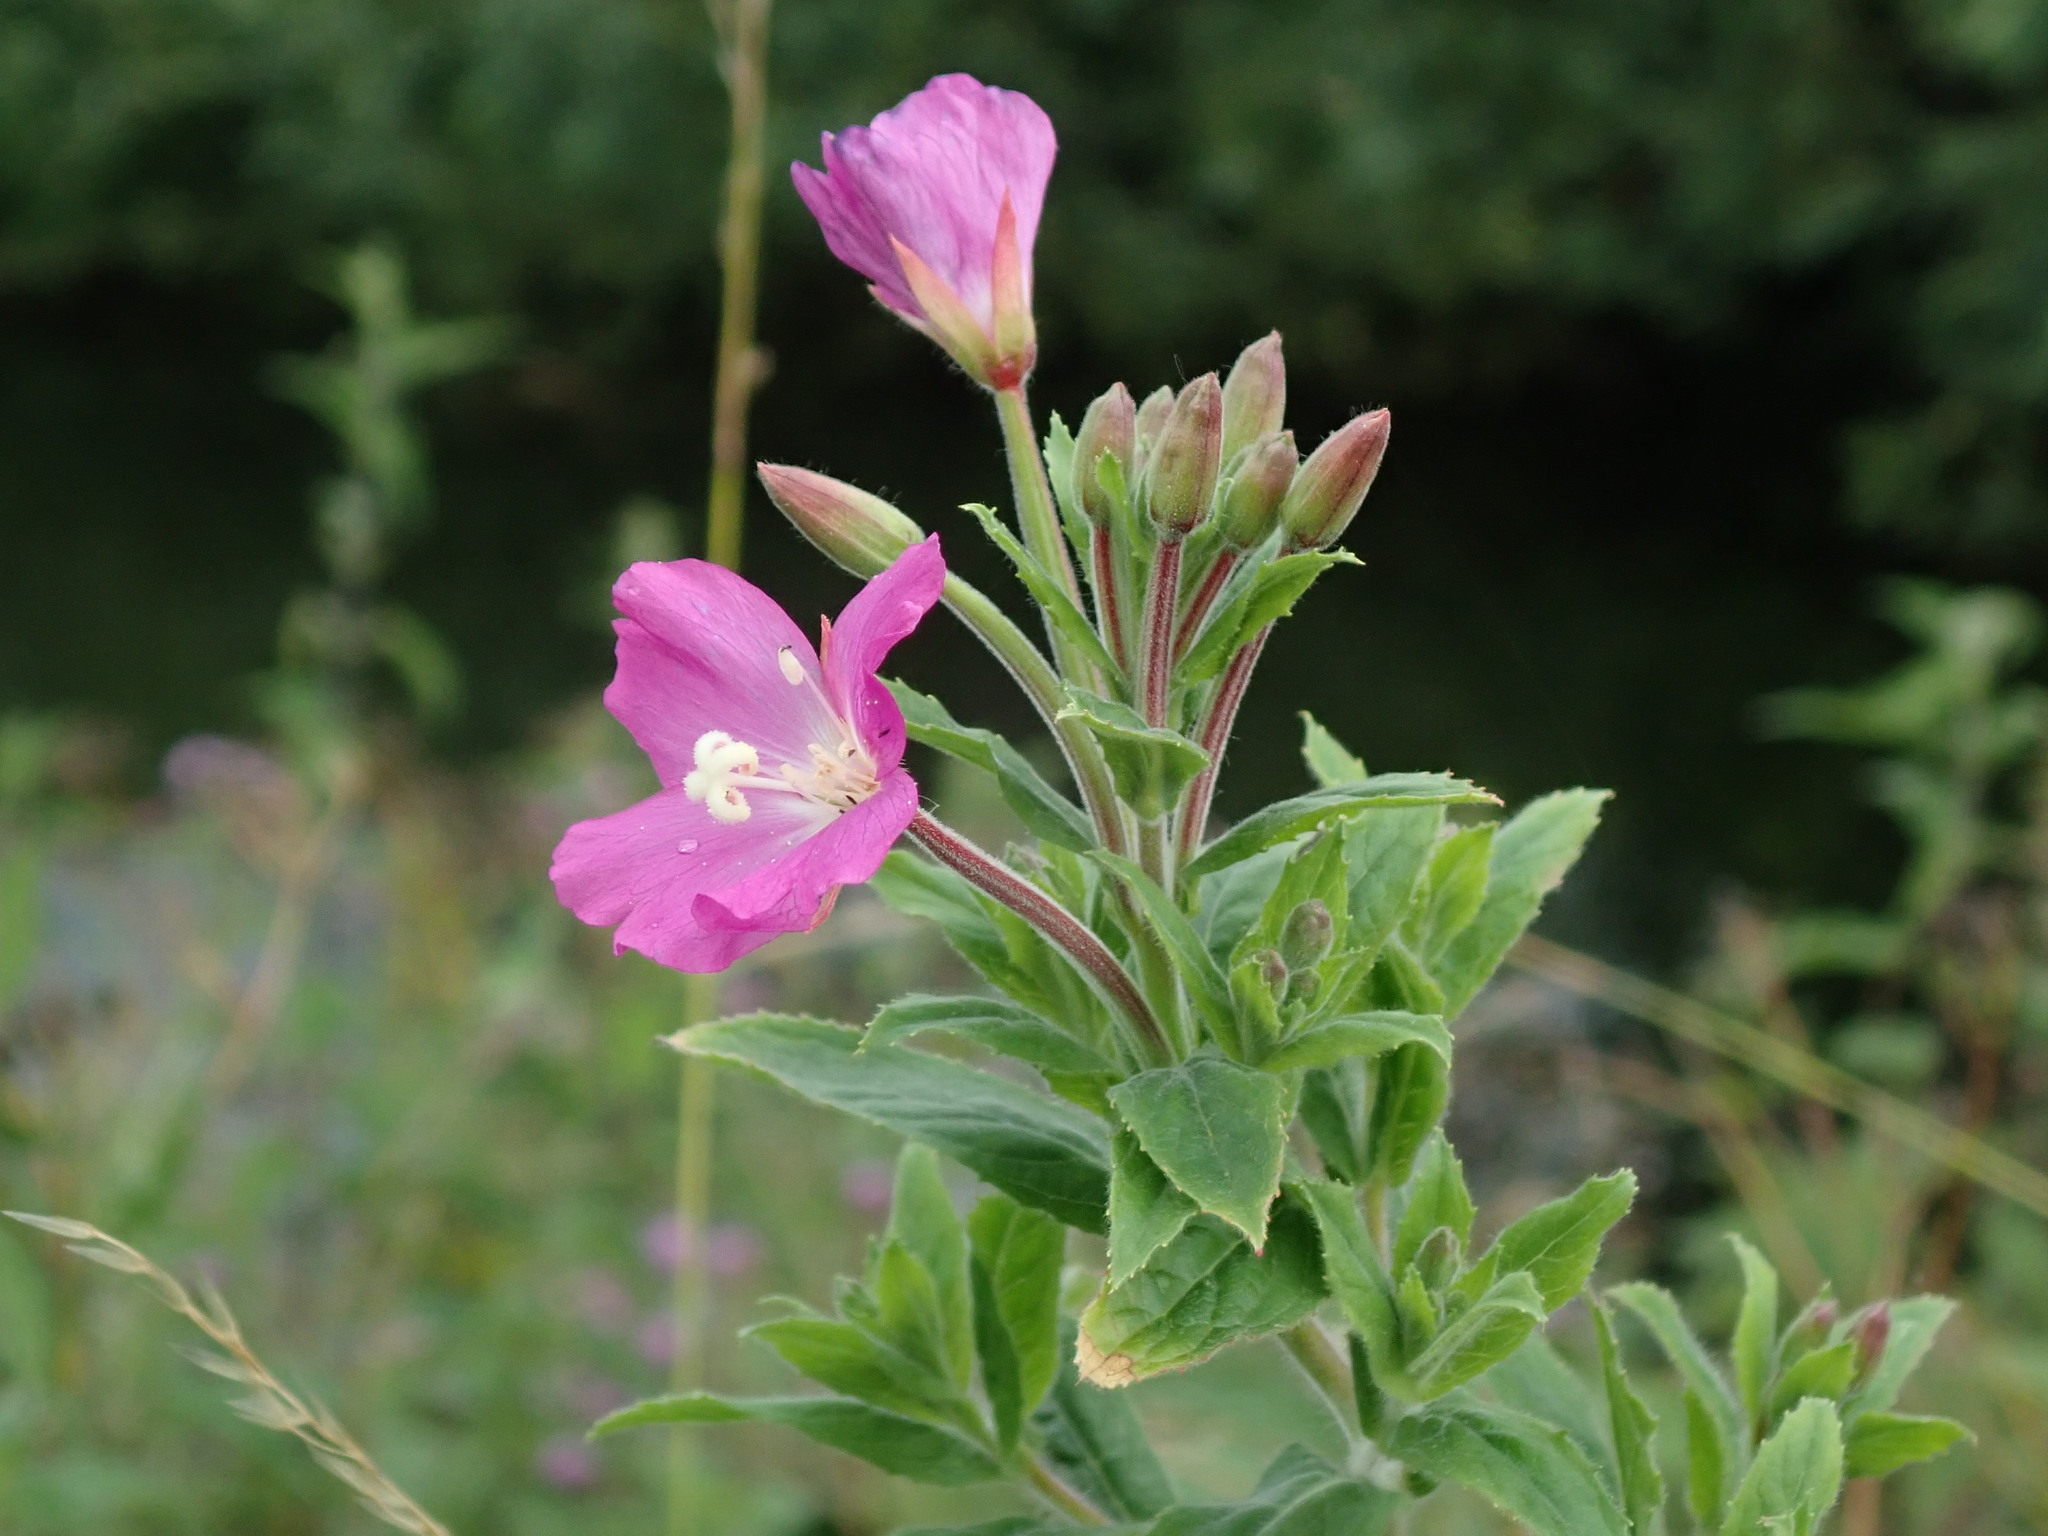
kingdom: Plantae
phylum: Tracheophyta
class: Magnoliopsida
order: Myrtales
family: Onagraceae
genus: Epilobium
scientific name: Epilobium hirsutum
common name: Great willowherb
